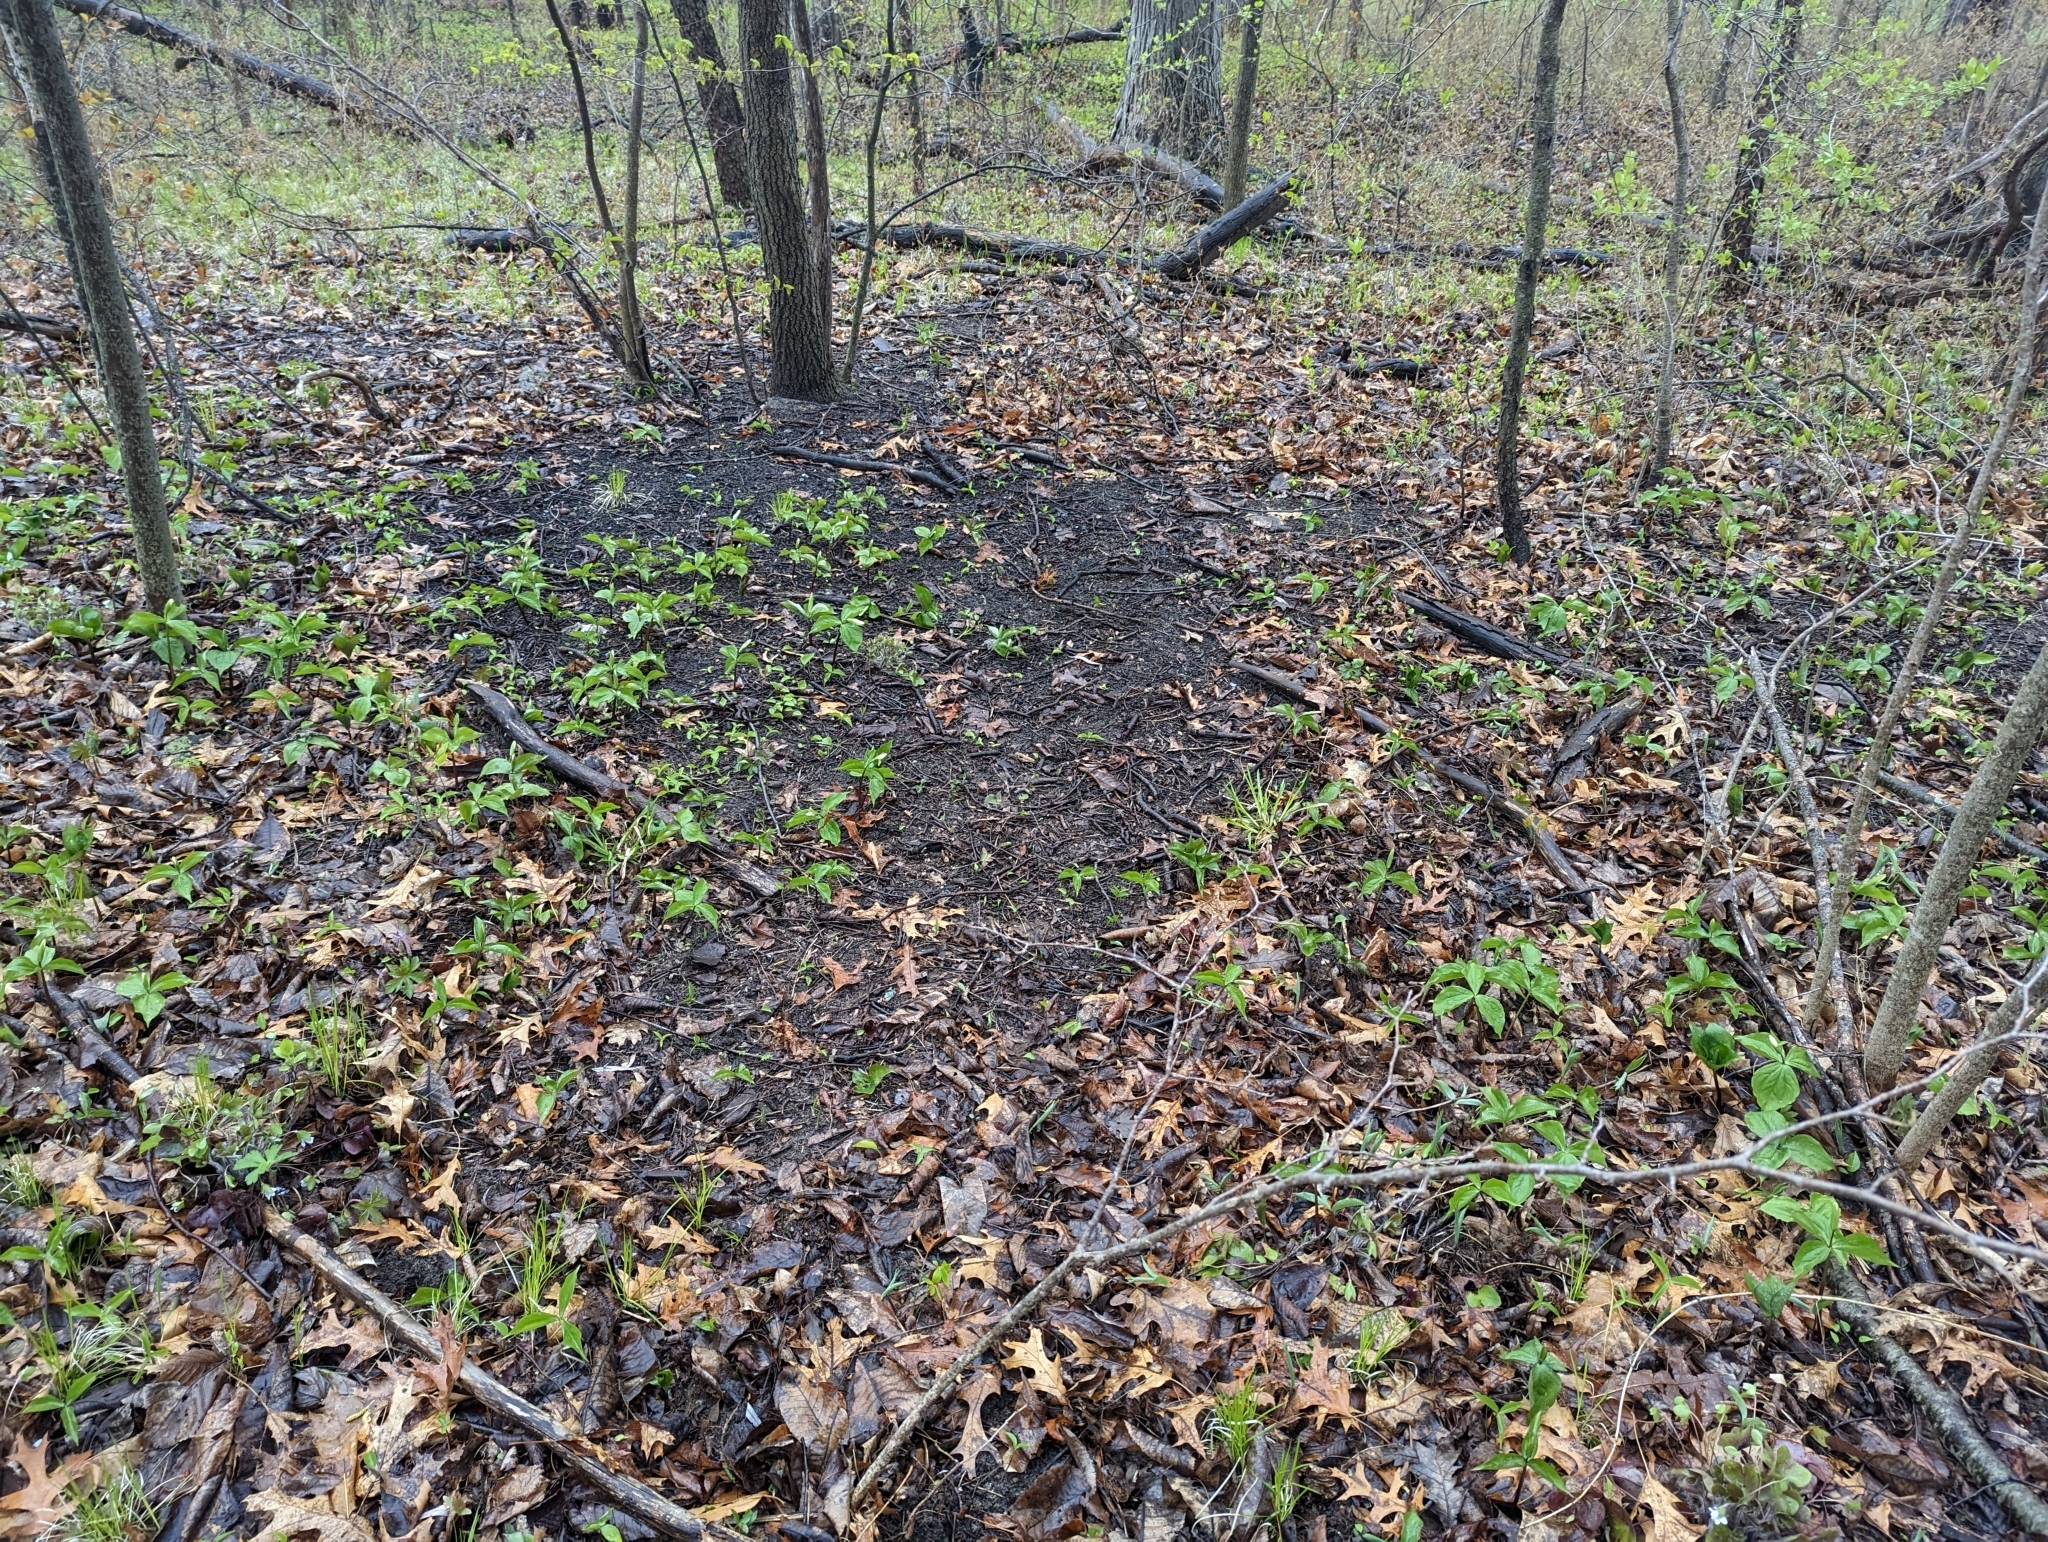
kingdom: Plantae
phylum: Tracheophyta
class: Liliopsida
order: Liliales
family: Melanthiaceae
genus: Trillium
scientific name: Trillium grandiflorum
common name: Great white trillium
